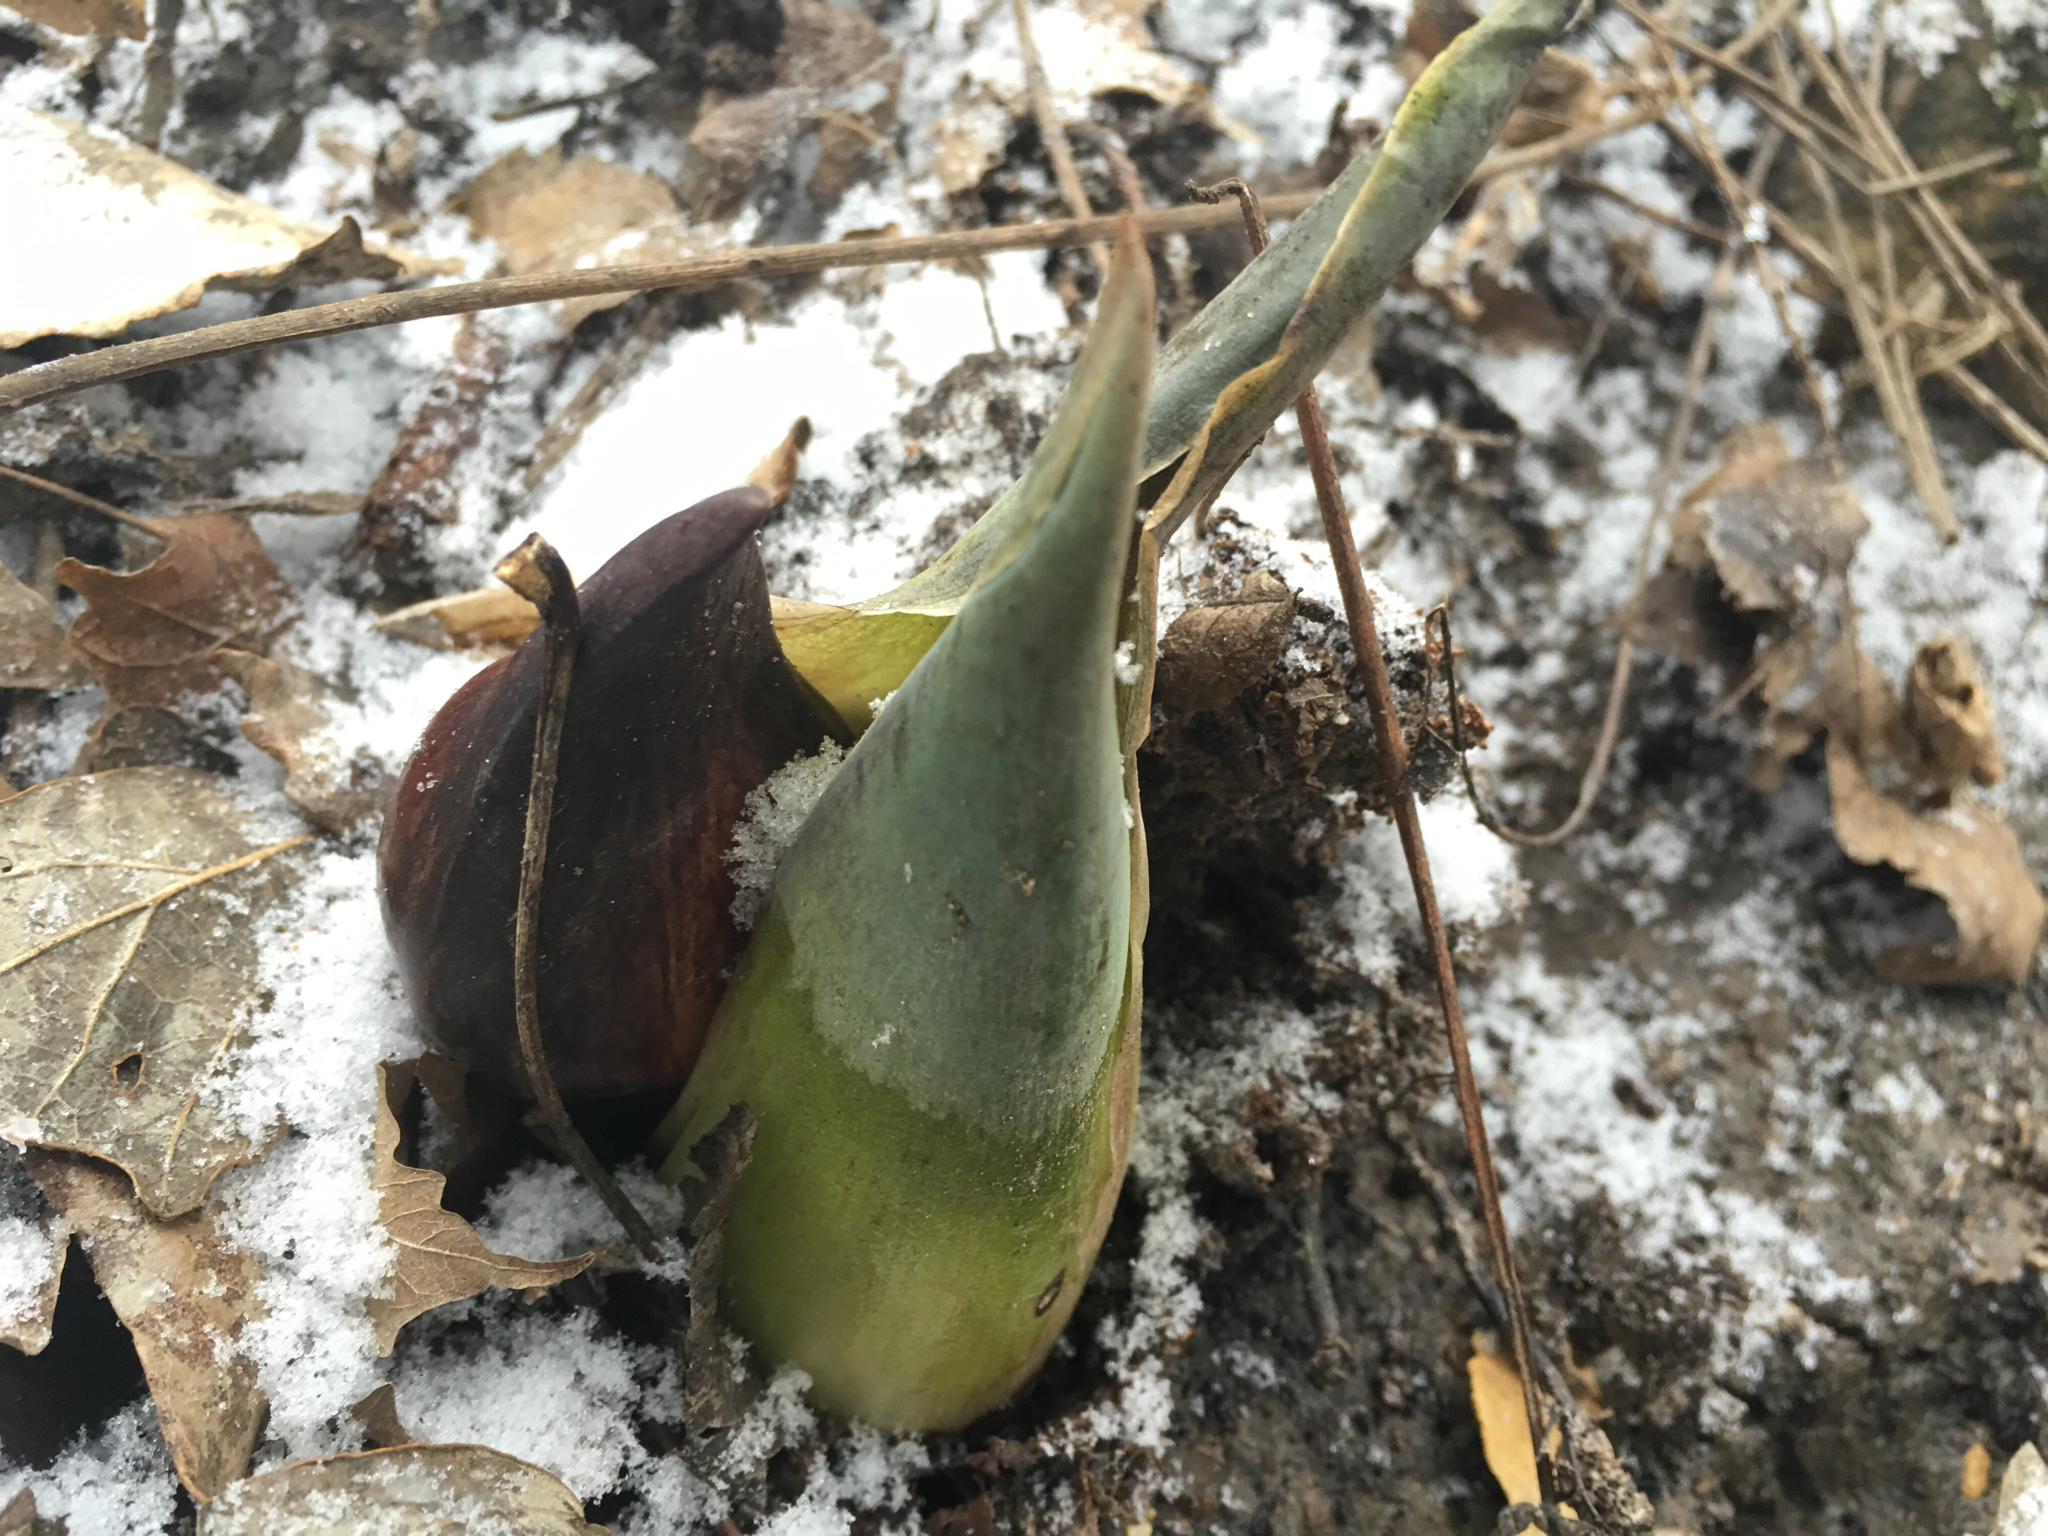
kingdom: Plantae
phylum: Tracheophyta
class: Liliopsida
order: Alismatales
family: Araceae
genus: Symplocarpus
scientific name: Symplocarpus foetidus
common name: Eastern skunk cabbage
